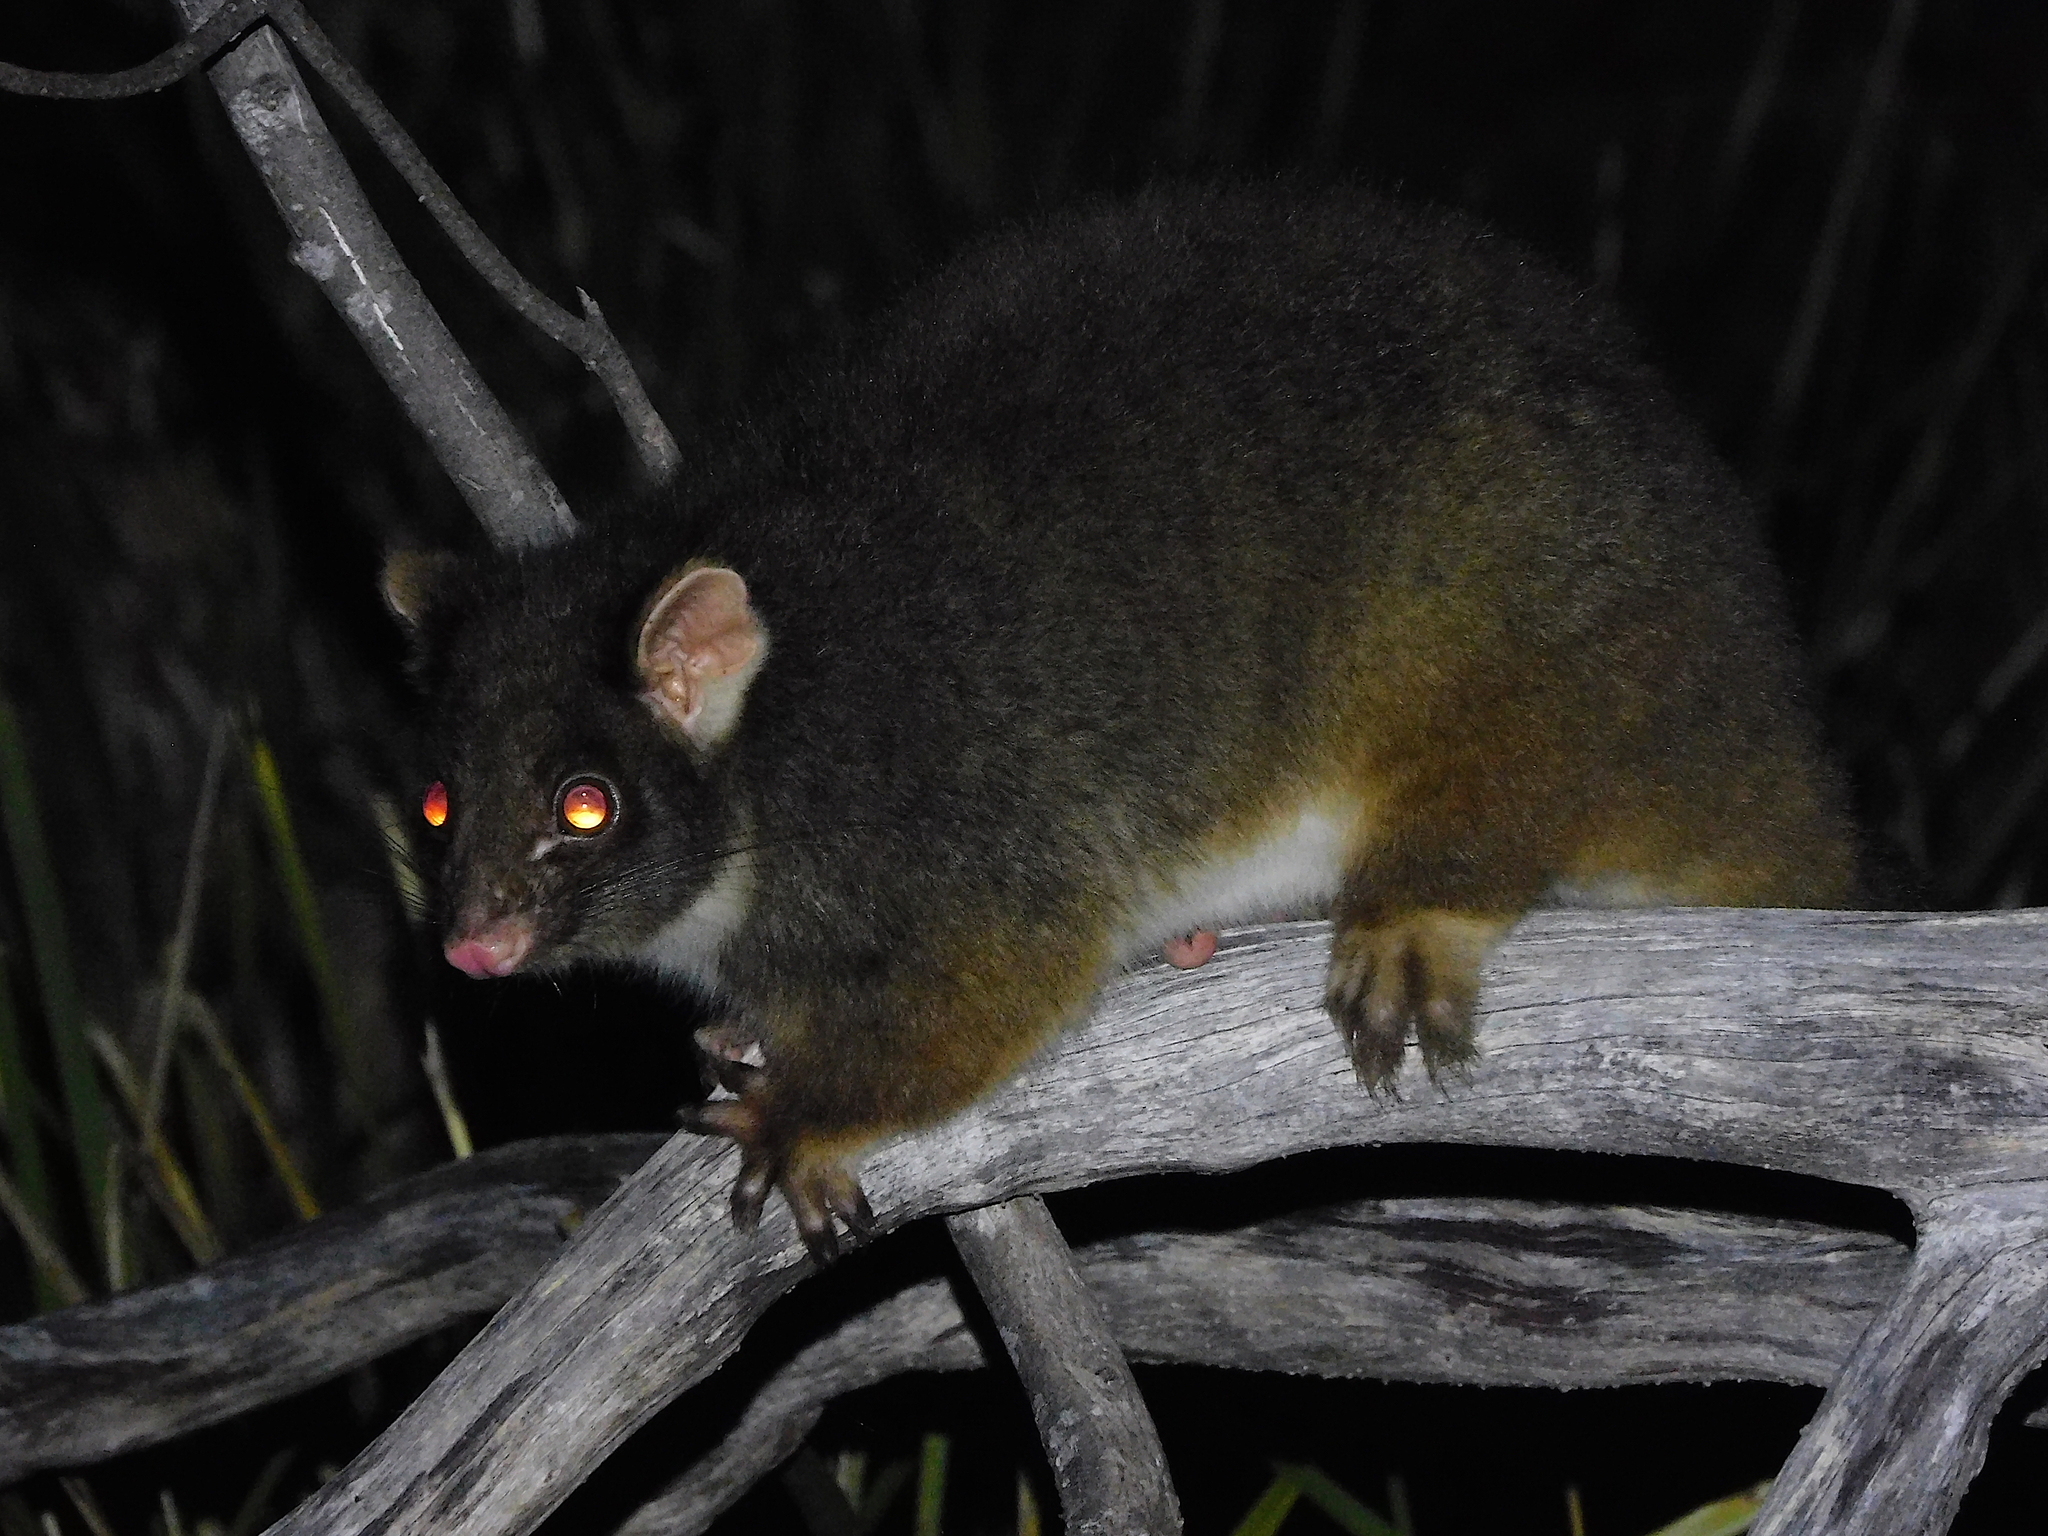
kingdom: Animalia
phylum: Chordata
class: Mammalia
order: Diprotodontia
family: Pseudocheiridae
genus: Pseudocheirus
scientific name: Pseudocheirus peregrinus
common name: Common ringtail possum
